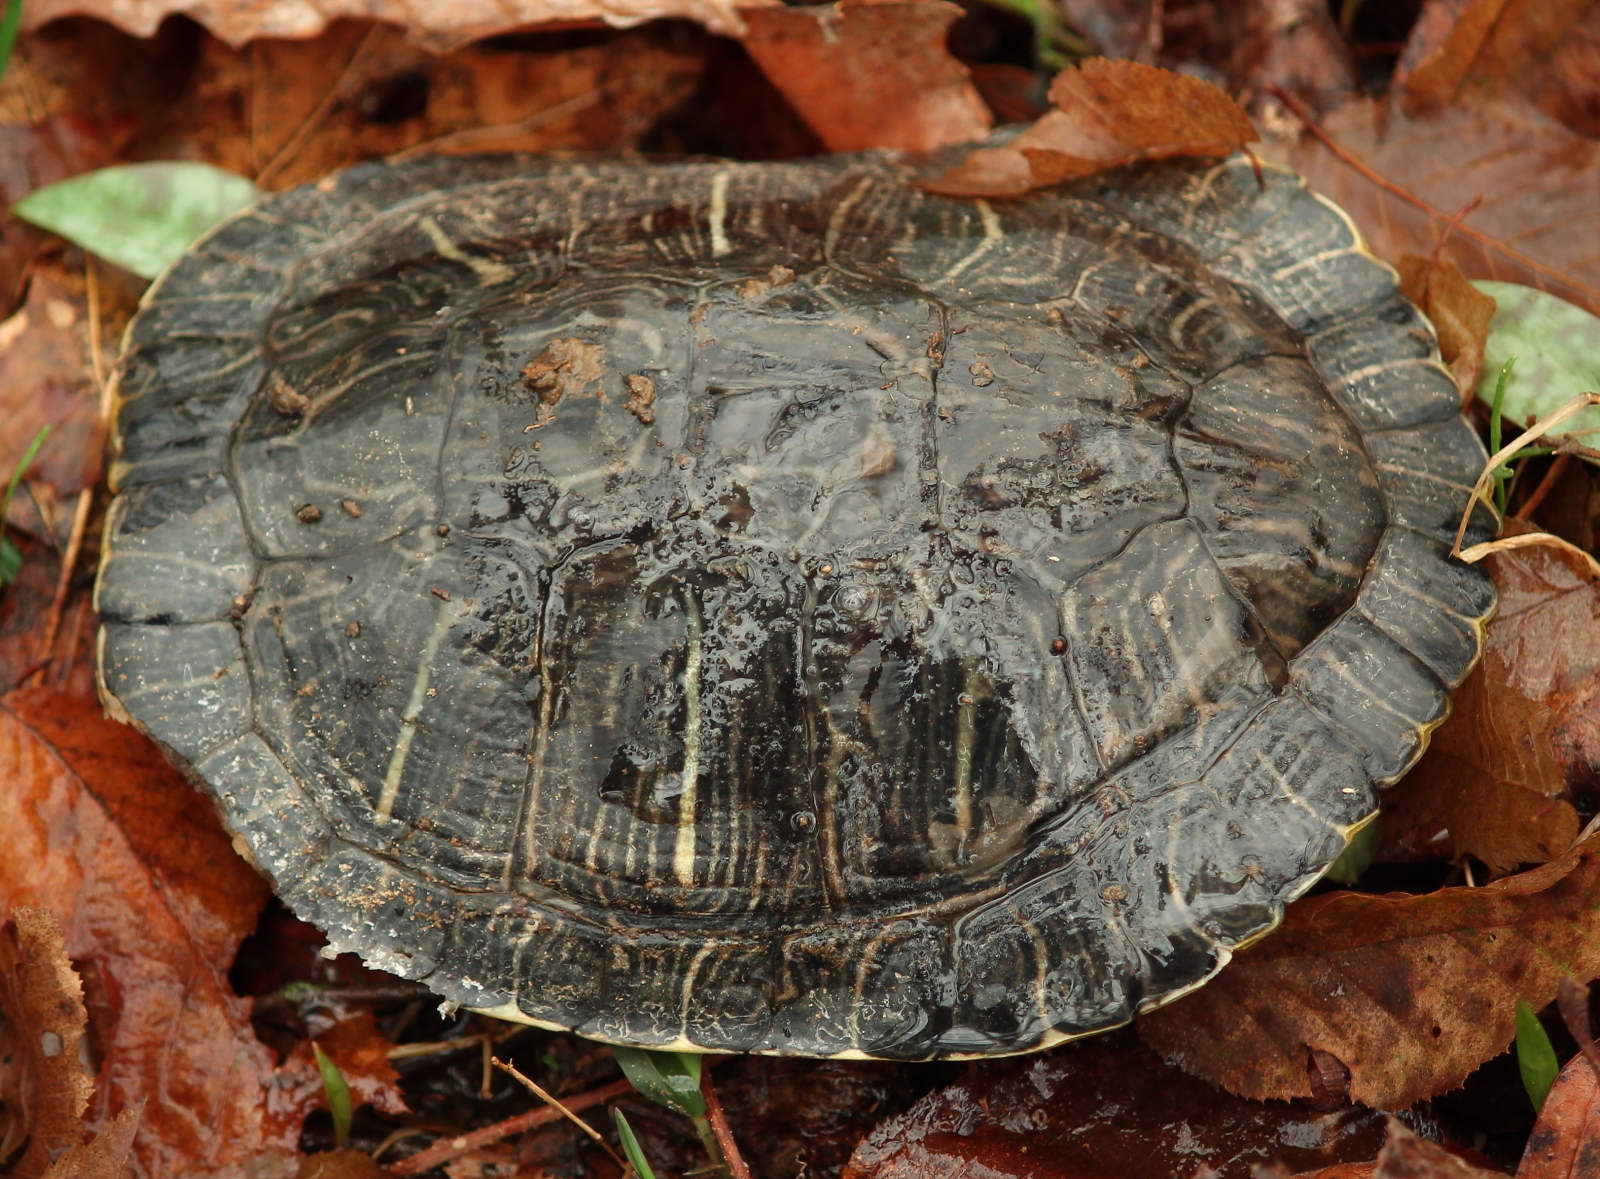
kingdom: Animalia
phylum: Chordata
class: Testudines
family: Emydidae
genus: Trachemys
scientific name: Trachemys scripta
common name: Slider
